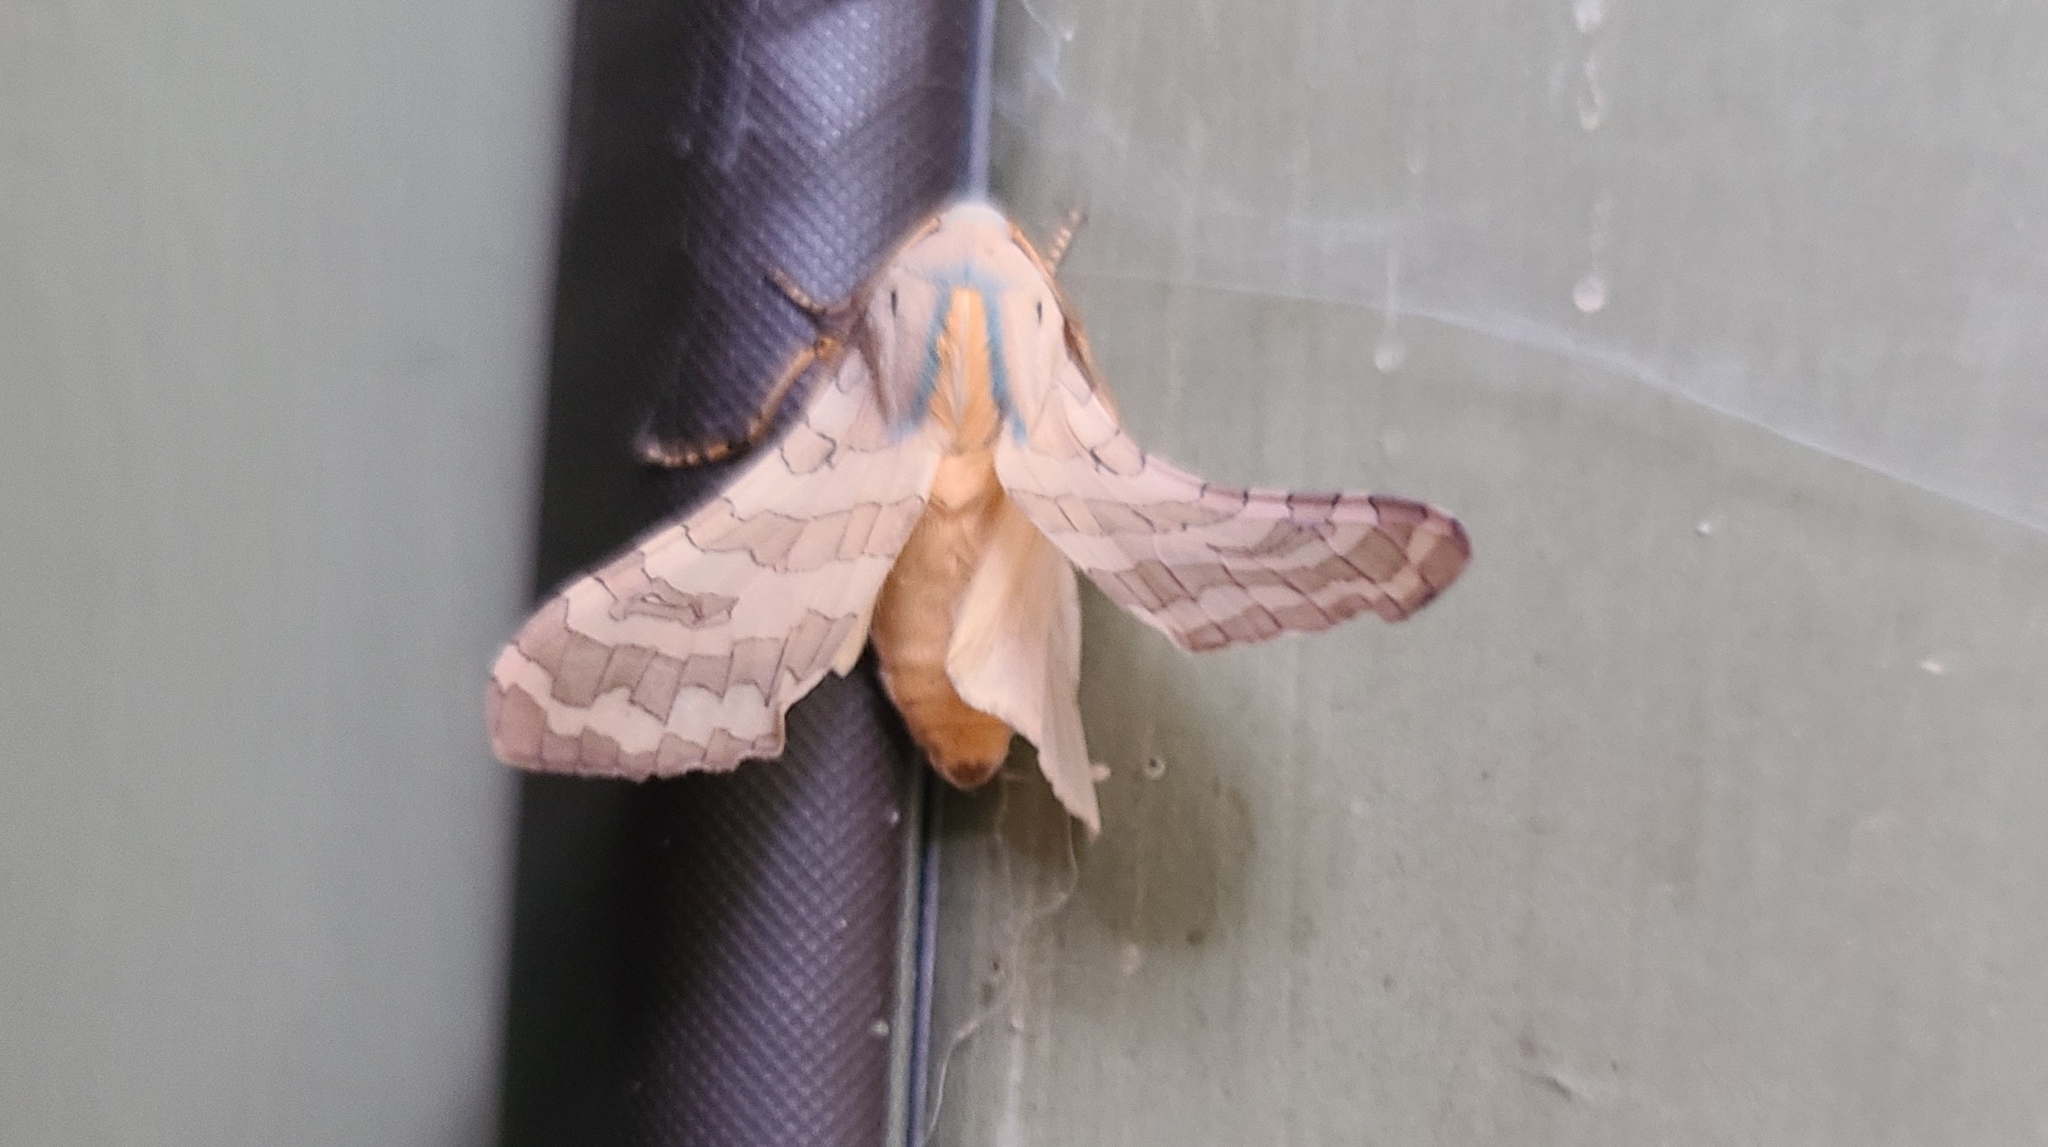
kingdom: Animalia
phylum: Arthropoda
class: Insecta
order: Lepidoptera
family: Erebidae
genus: Halysidota
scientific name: Halysidota
